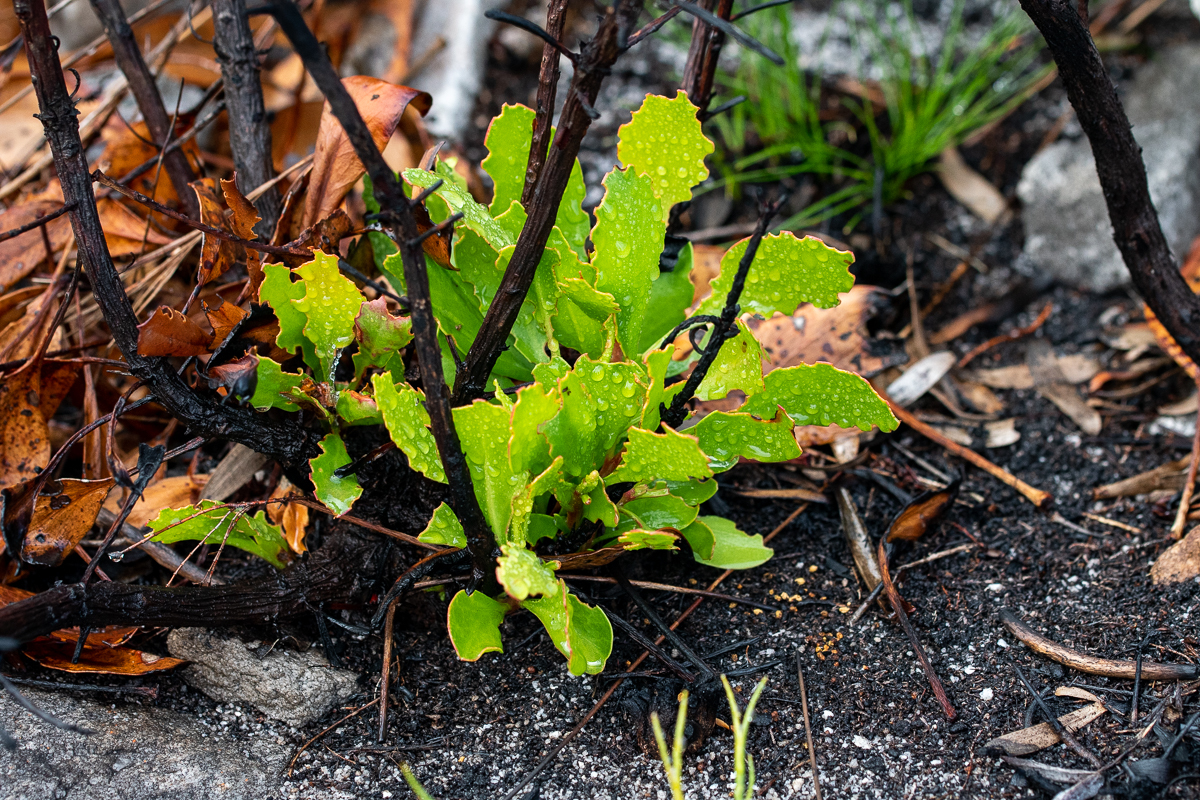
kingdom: Plantae
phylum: Tracheophyta
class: Magnoliopsida
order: Proteales
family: Proteaceae
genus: Protea
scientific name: Protea cynaroides
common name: King protea
